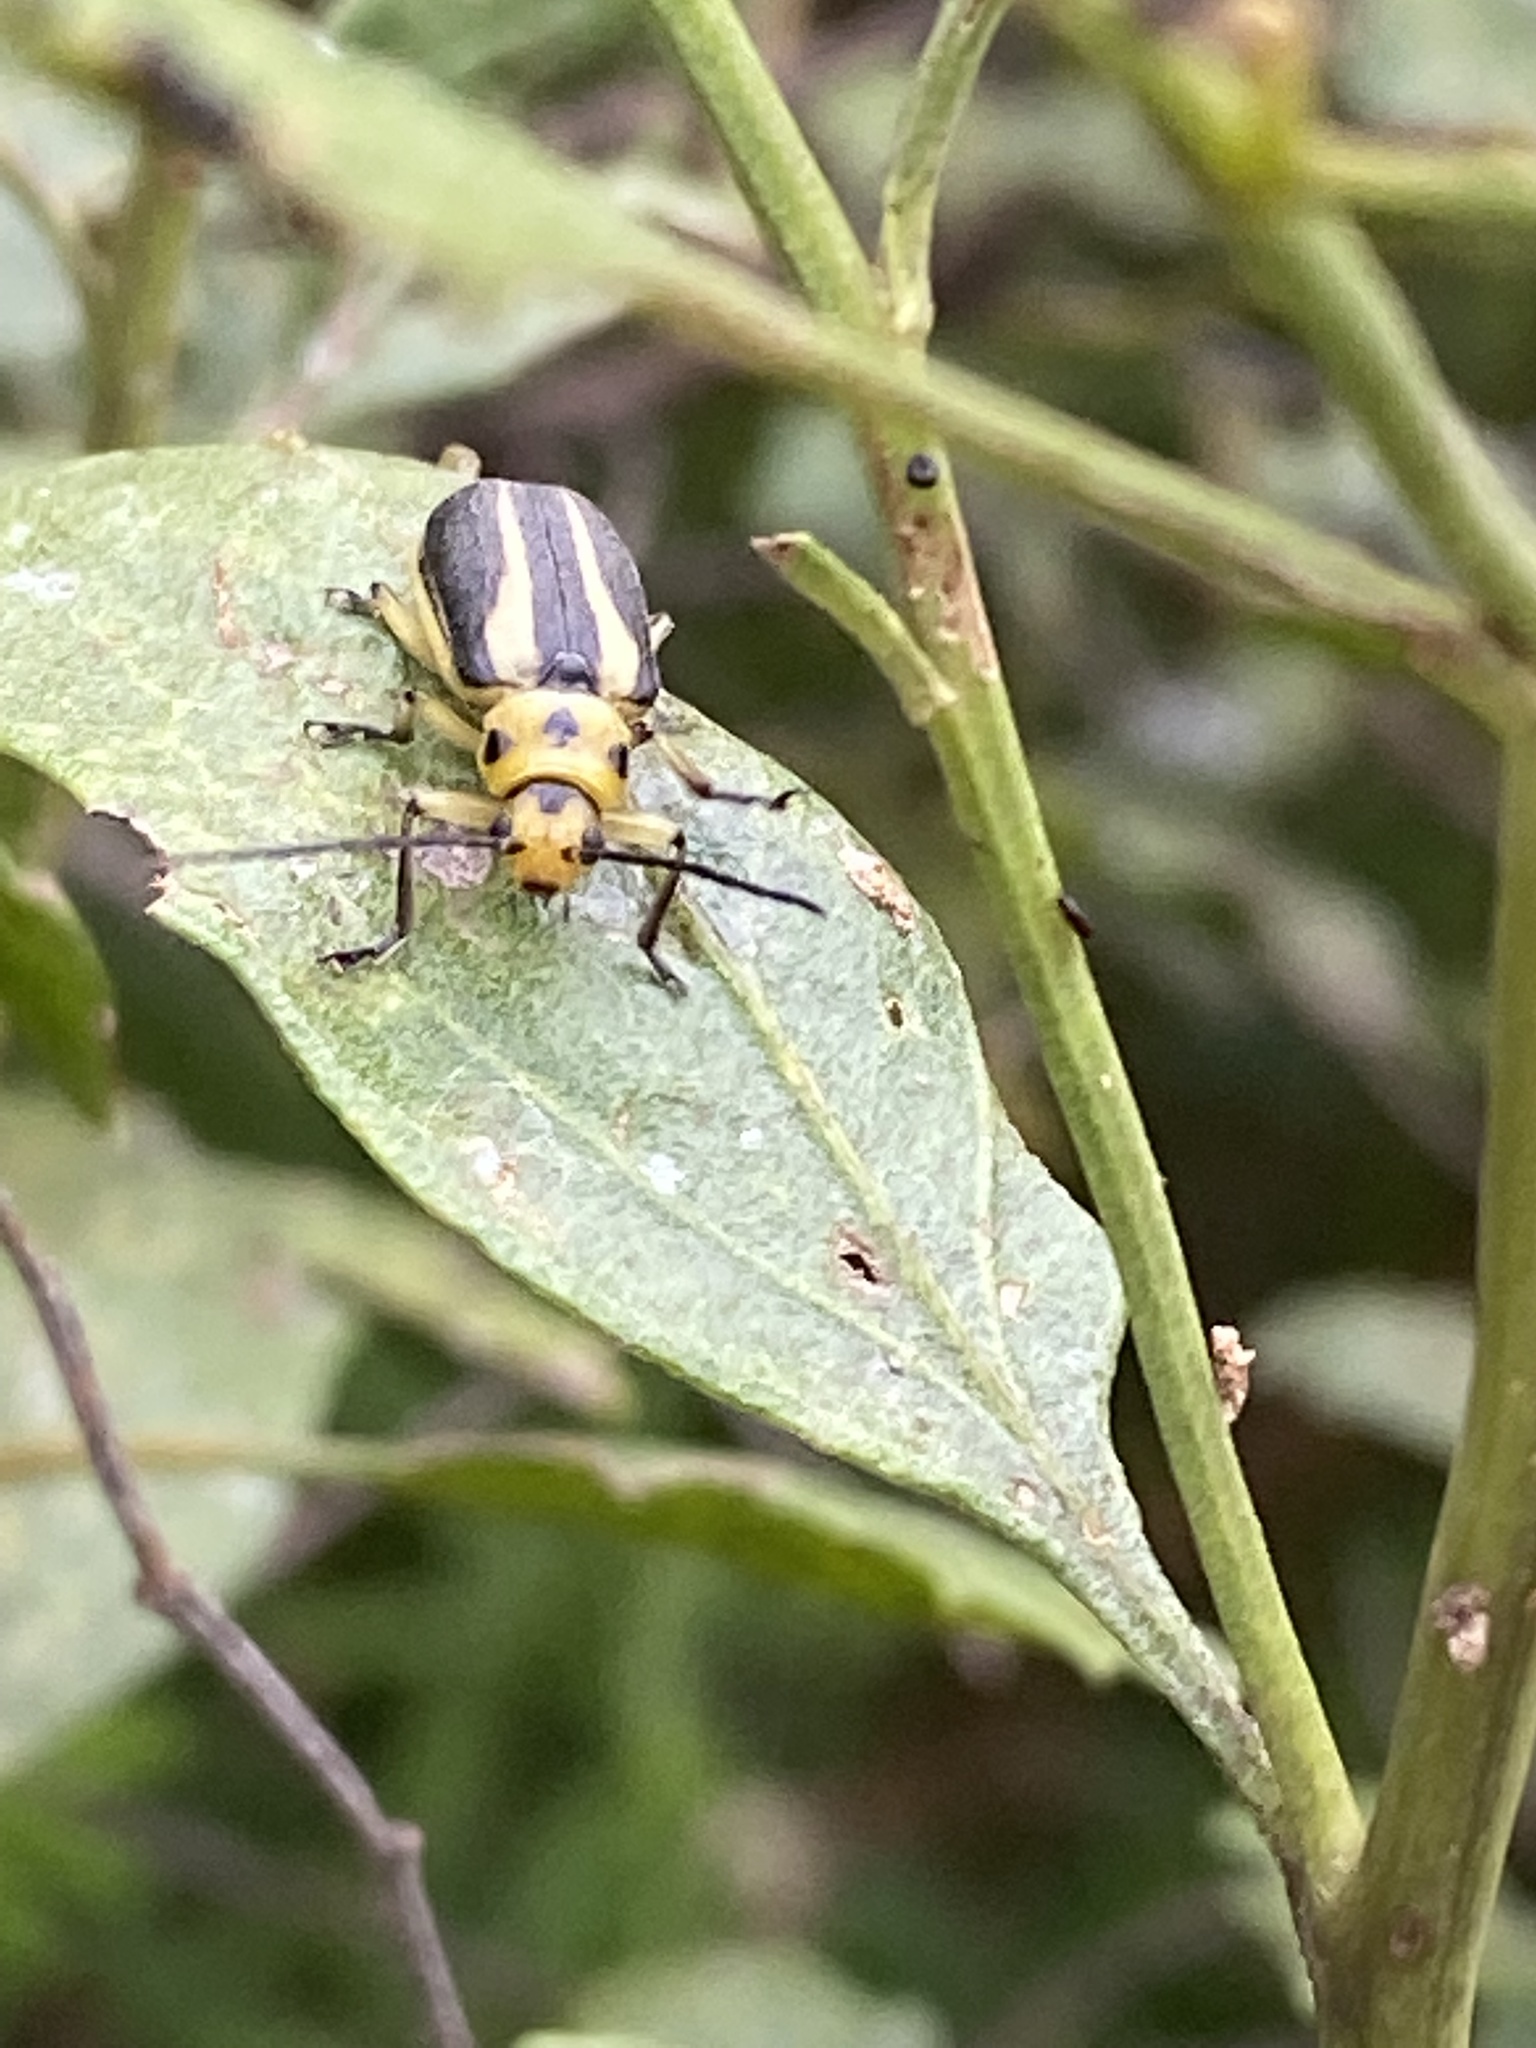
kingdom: Animalia
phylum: Arthropoda
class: Insecta
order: Coleoptera
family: Chrysomelidae
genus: Trirhabda
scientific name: Trirhabda bacharidis
